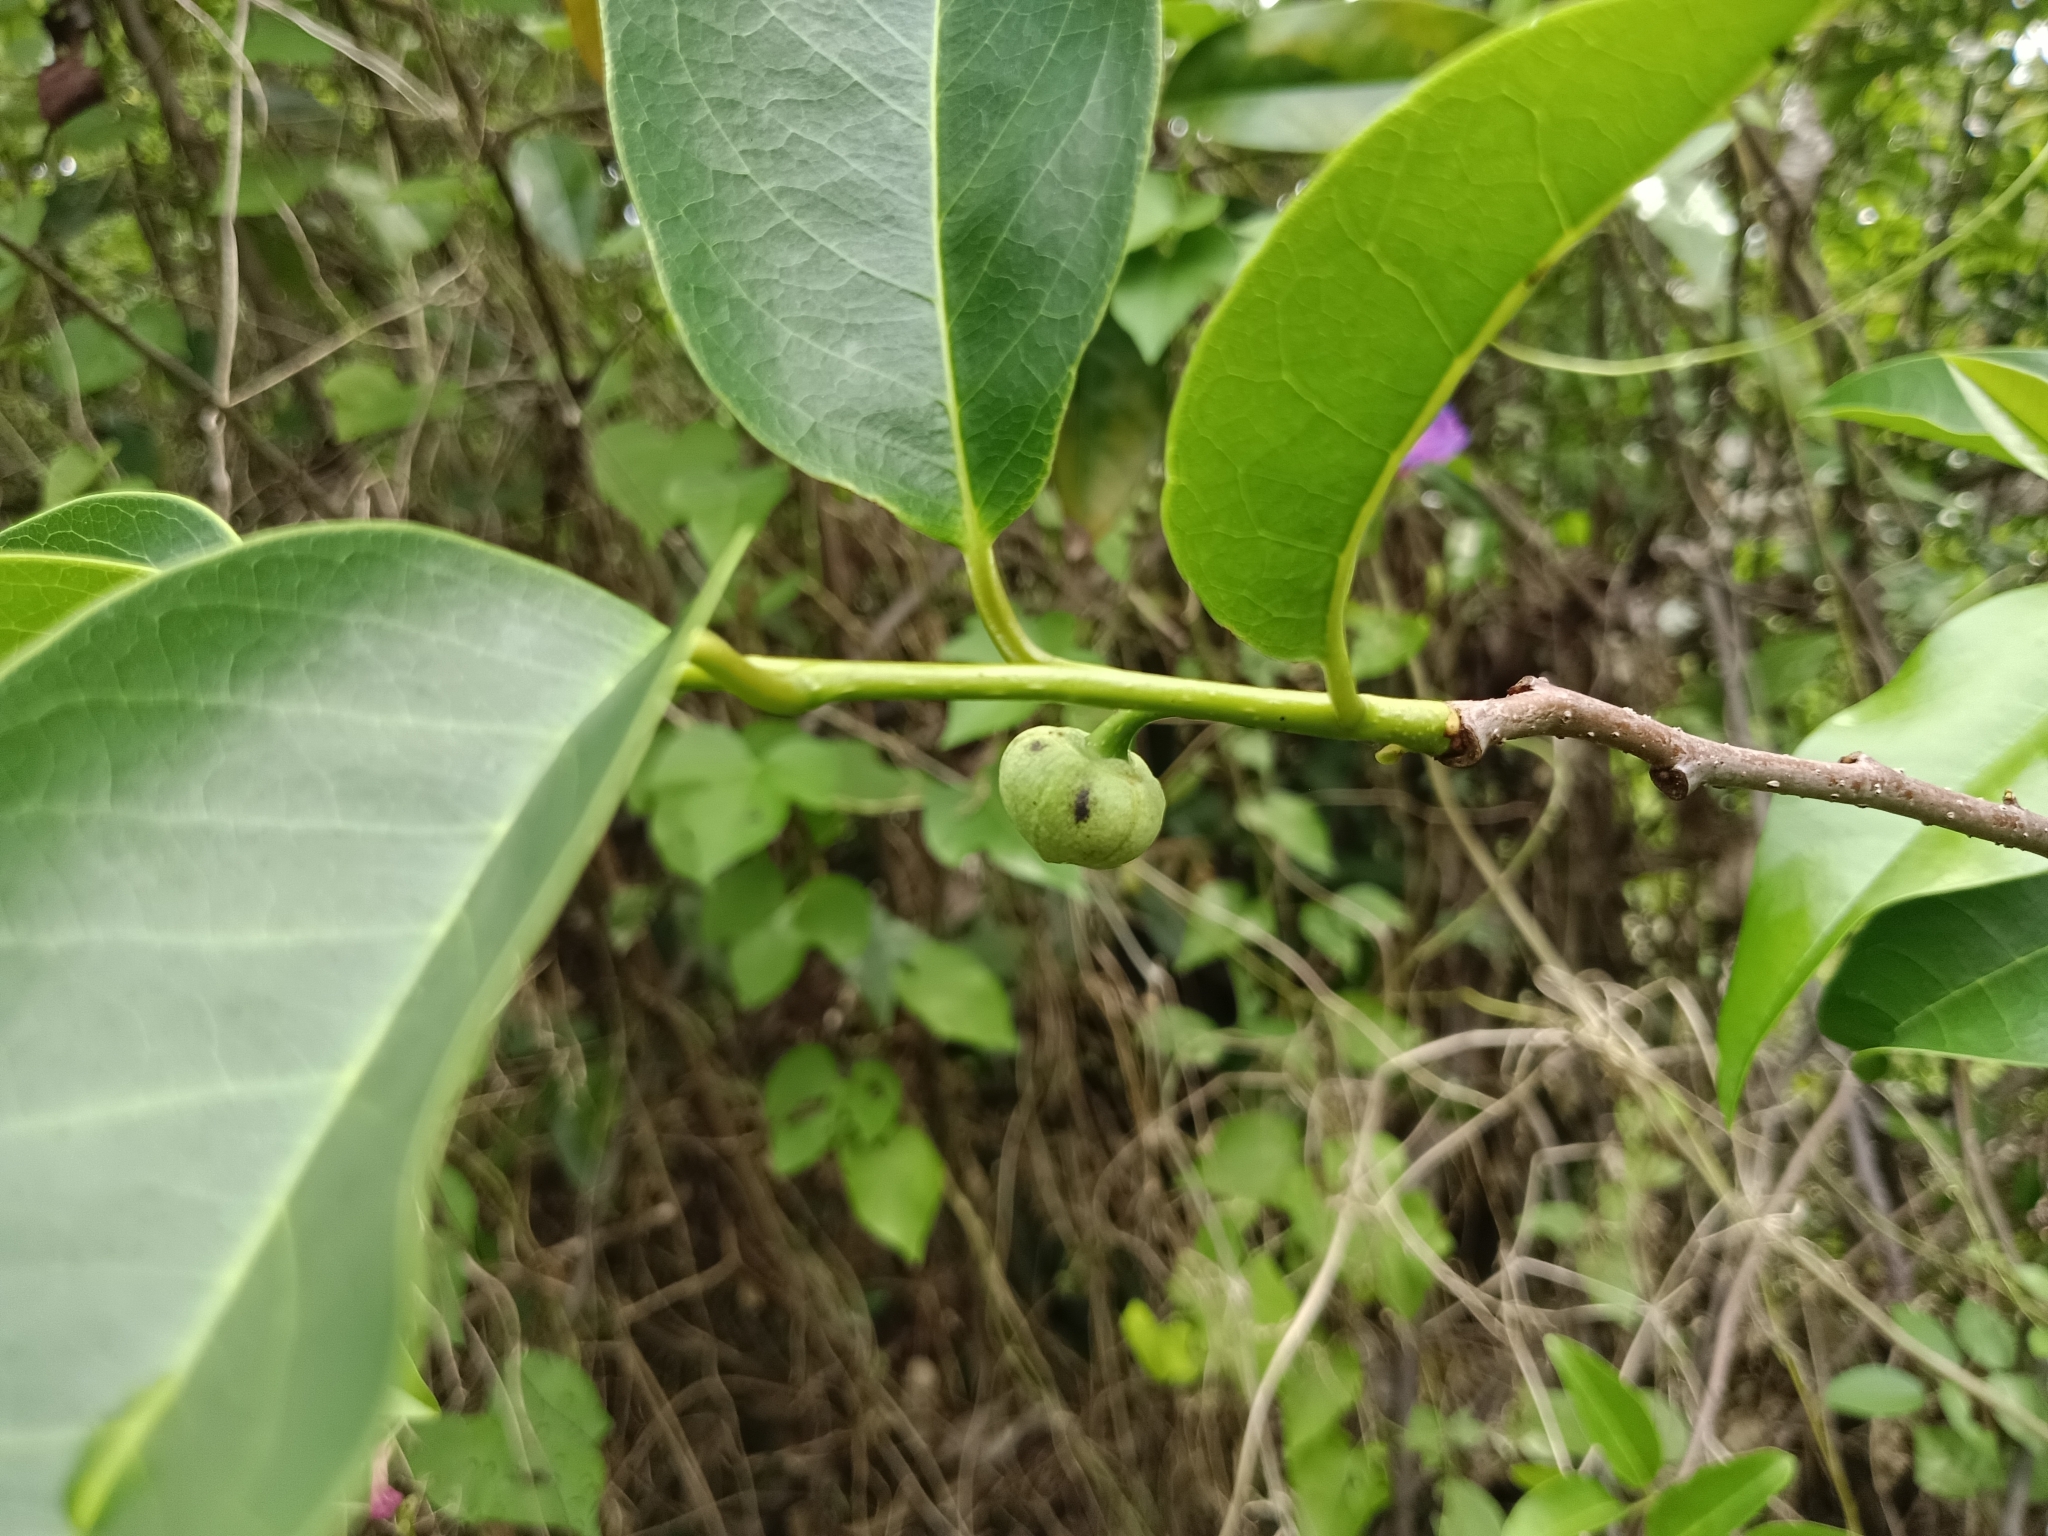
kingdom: Plantae
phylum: Tracheophyta
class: Magnoliopsida
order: Magnoliales
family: Annonaceae
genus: Annona
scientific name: Annona glabra
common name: Monkey apple
